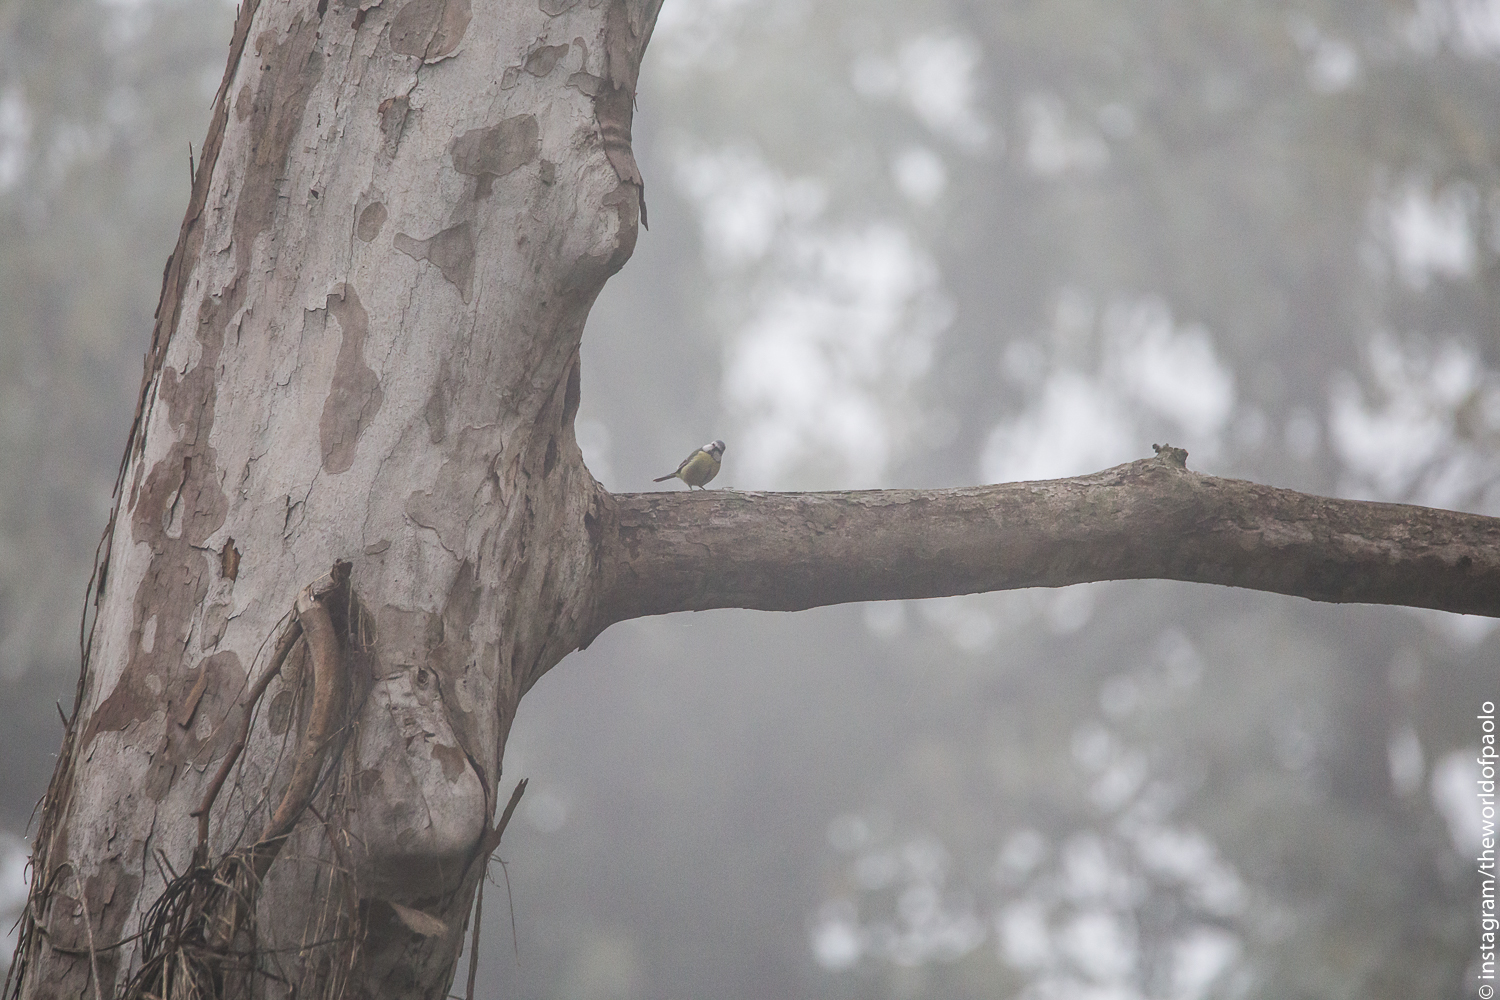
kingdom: Animalia
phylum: Chordata
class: Aves
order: Passeriformes
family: Paridae
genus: Cyanistes
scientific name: Cyanistes caeruleus
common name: Eurasian blue tit
